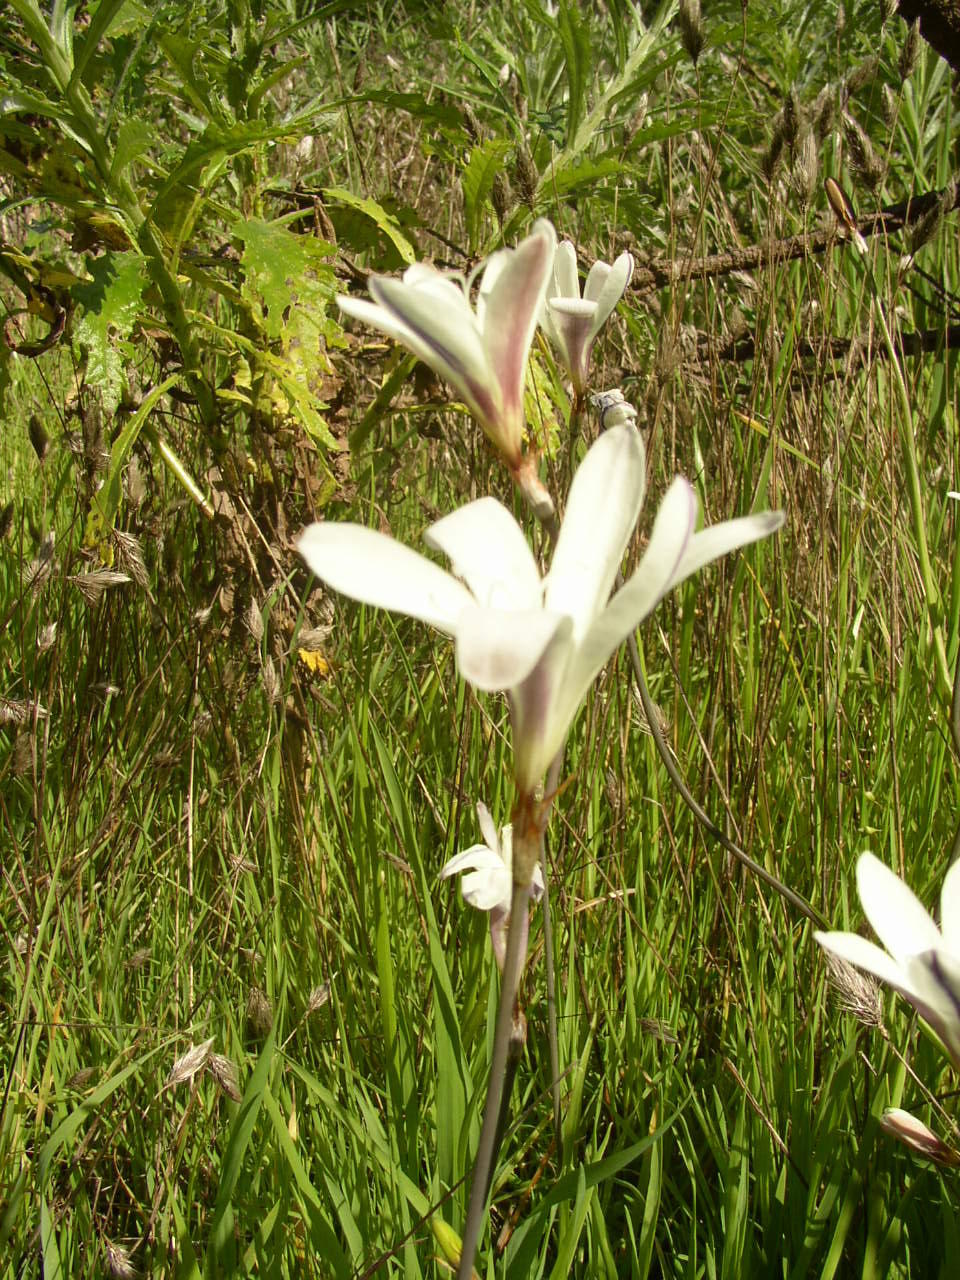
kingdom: Plantae
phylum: Tracheophyta
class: Liliopsida
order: Asparagales
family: Iridaceae
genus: Sparaxis
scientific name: Sparaxis bulbifera
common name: Harlequin-flower
